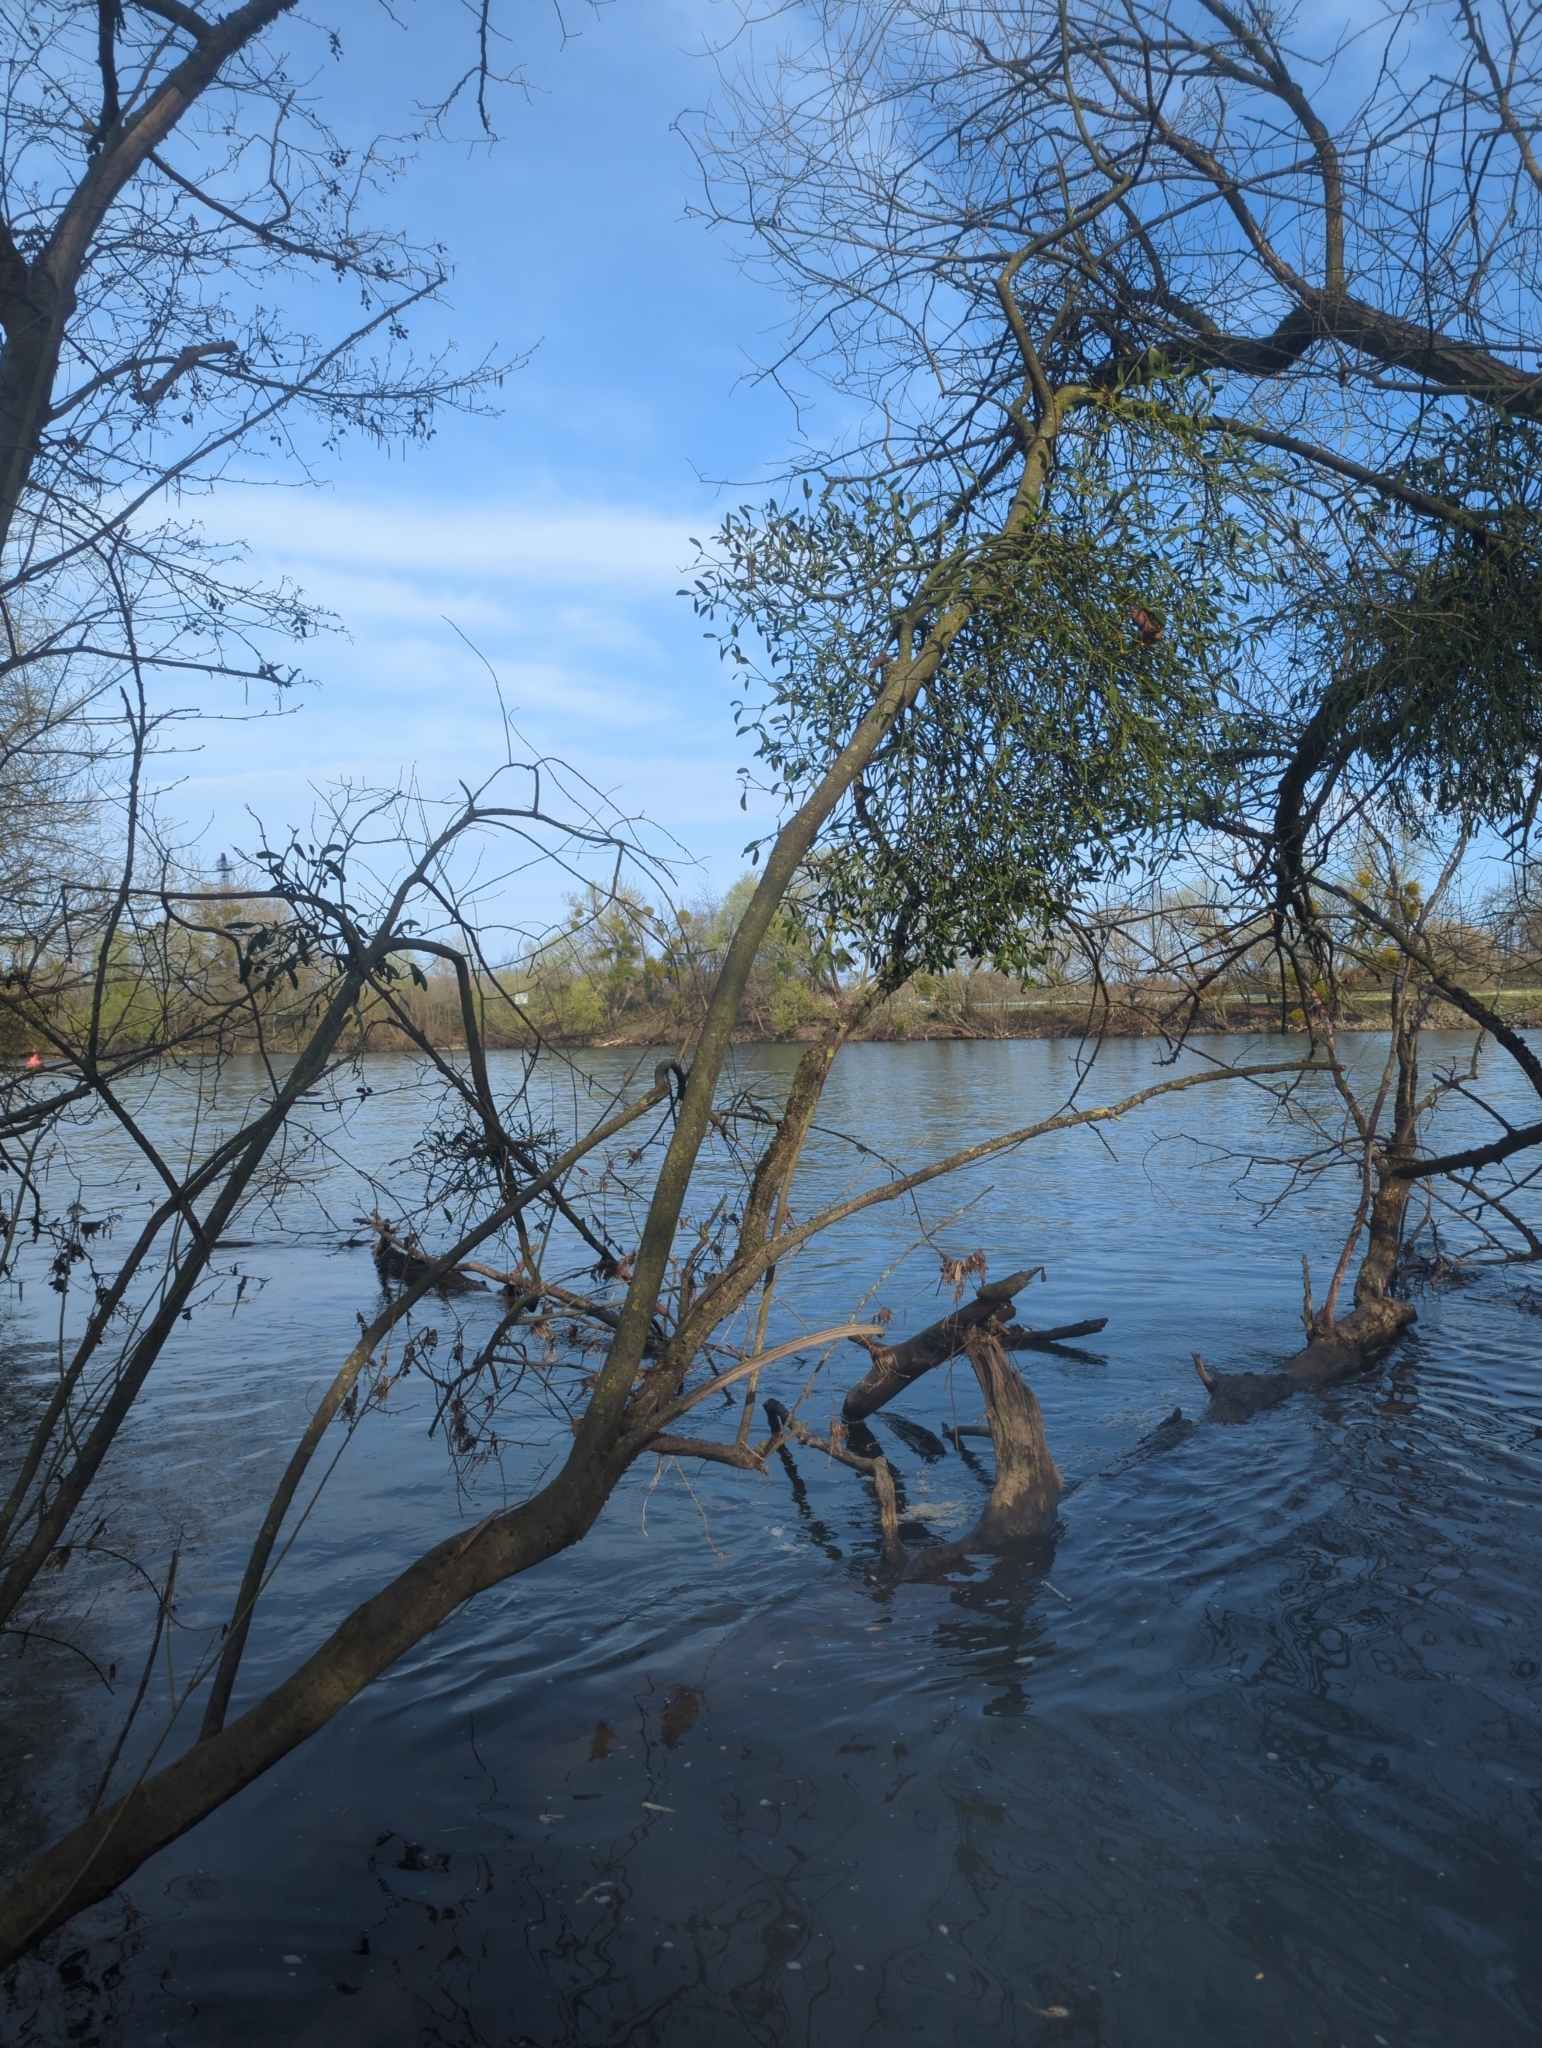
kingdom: Plantae
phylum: Tracheophyta
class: Magnoliopsida
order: Santalales
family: Viscaceae
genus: Viscum
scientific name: Viscum album
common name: Mistletoe
